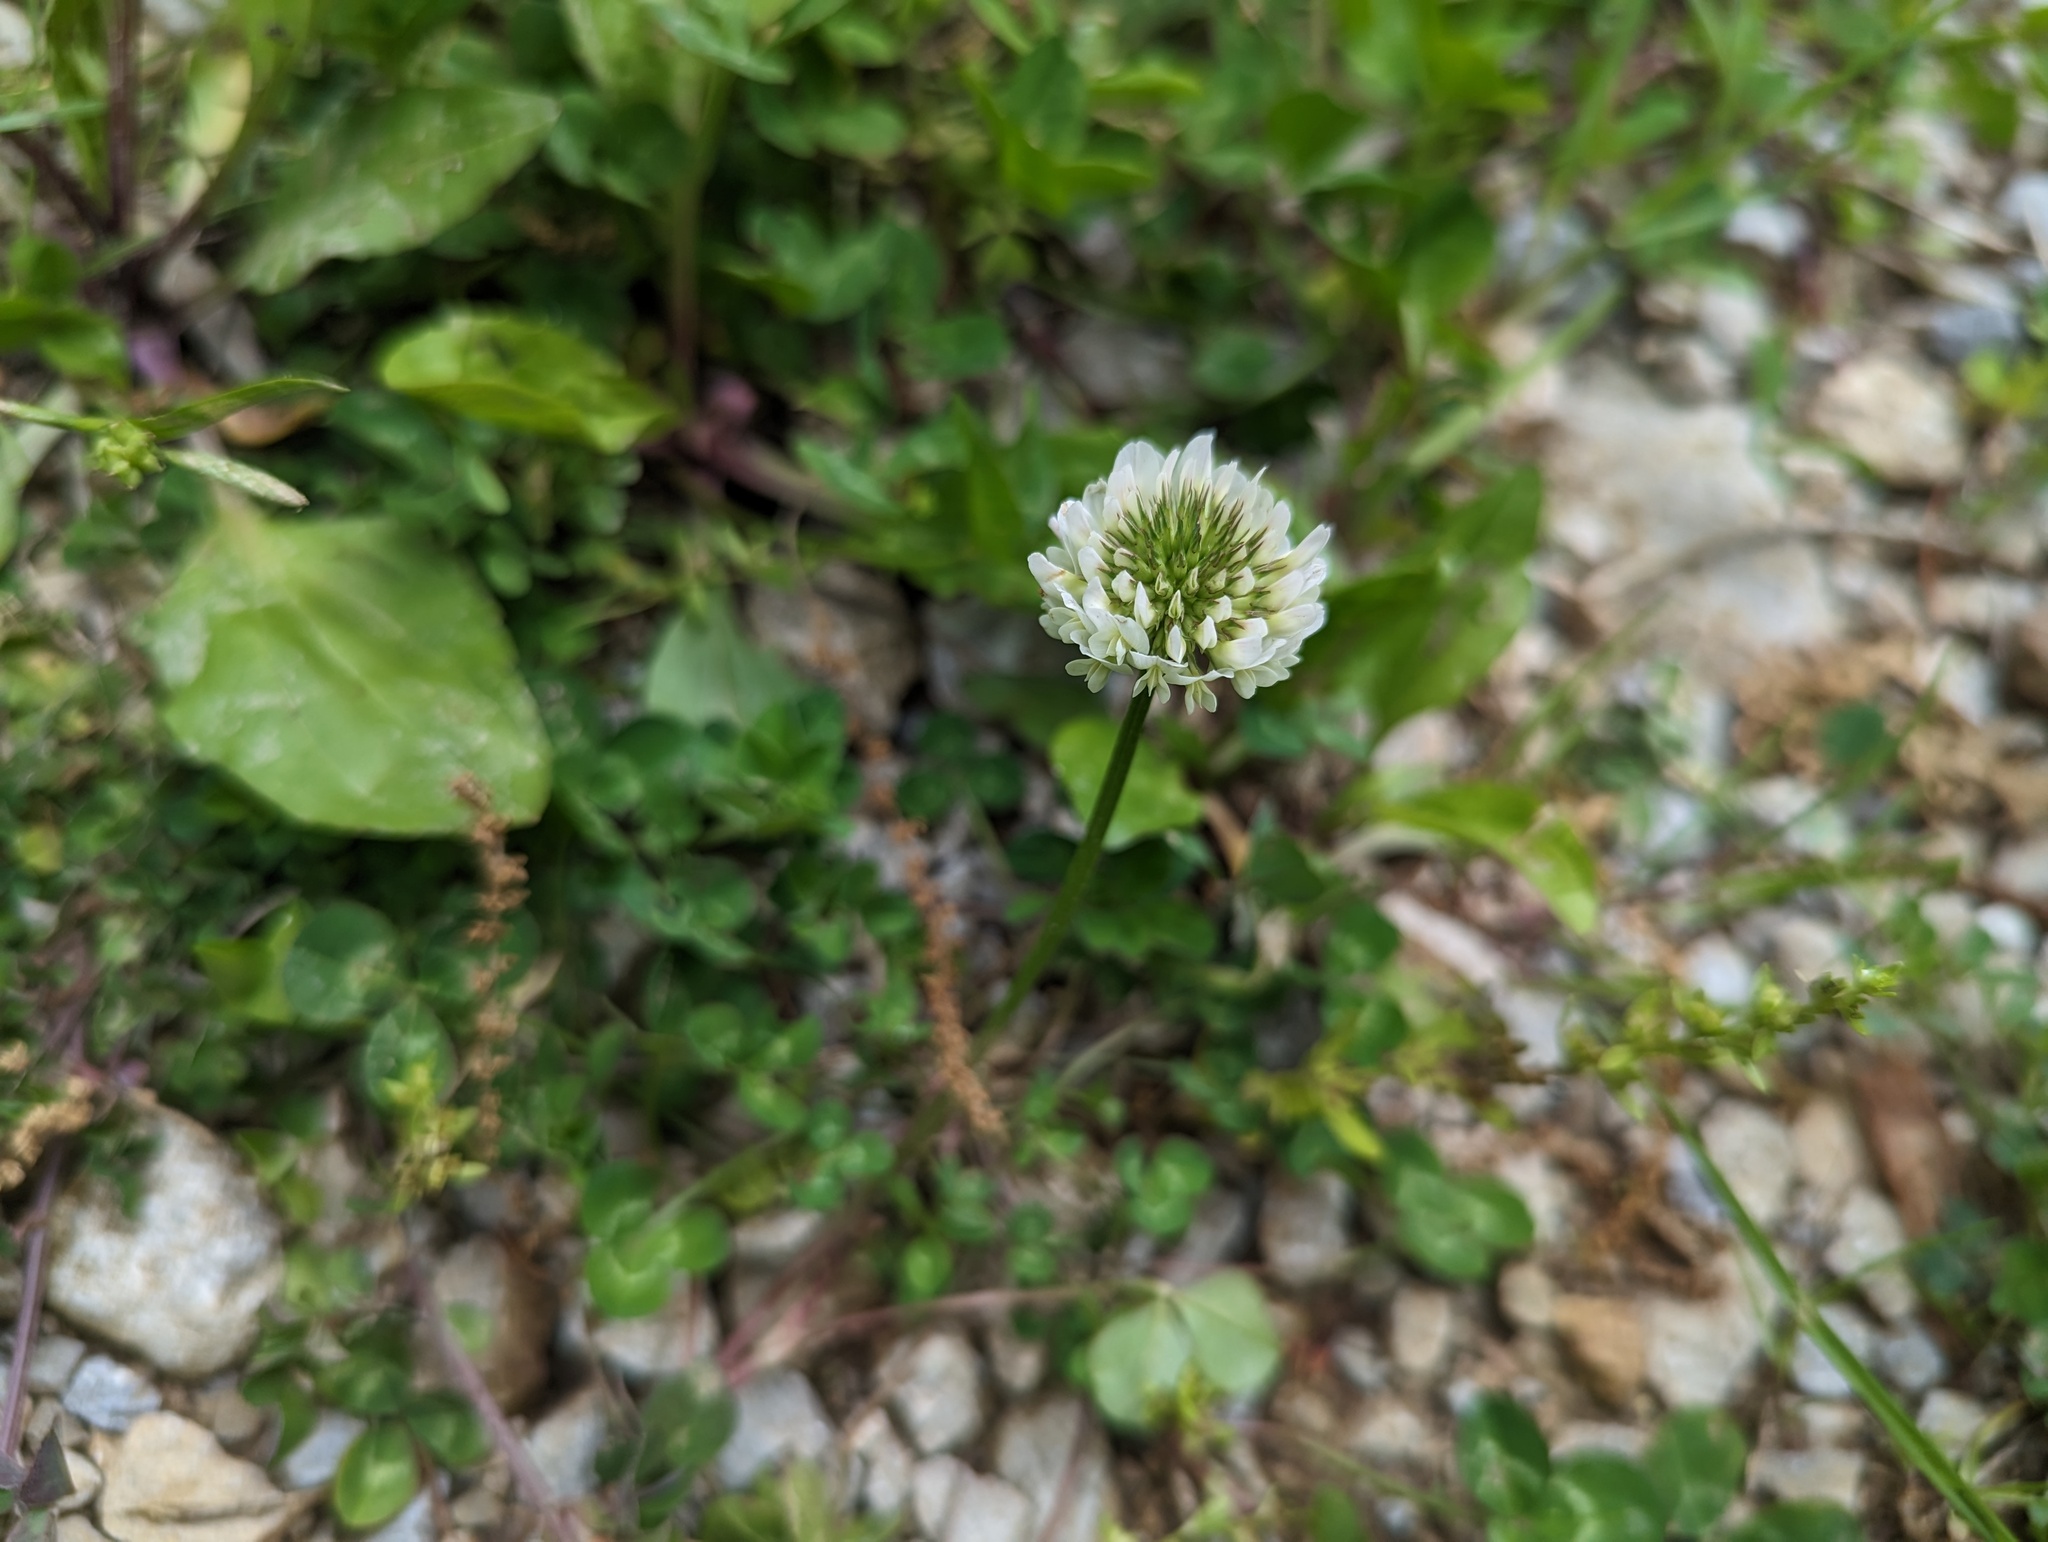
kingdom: Plantae
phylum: Tracheophyta
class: Magnoliopsida
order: Fabales
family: Fabaceae
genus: Trifolium
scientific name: Trifolium repens
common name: White clover
